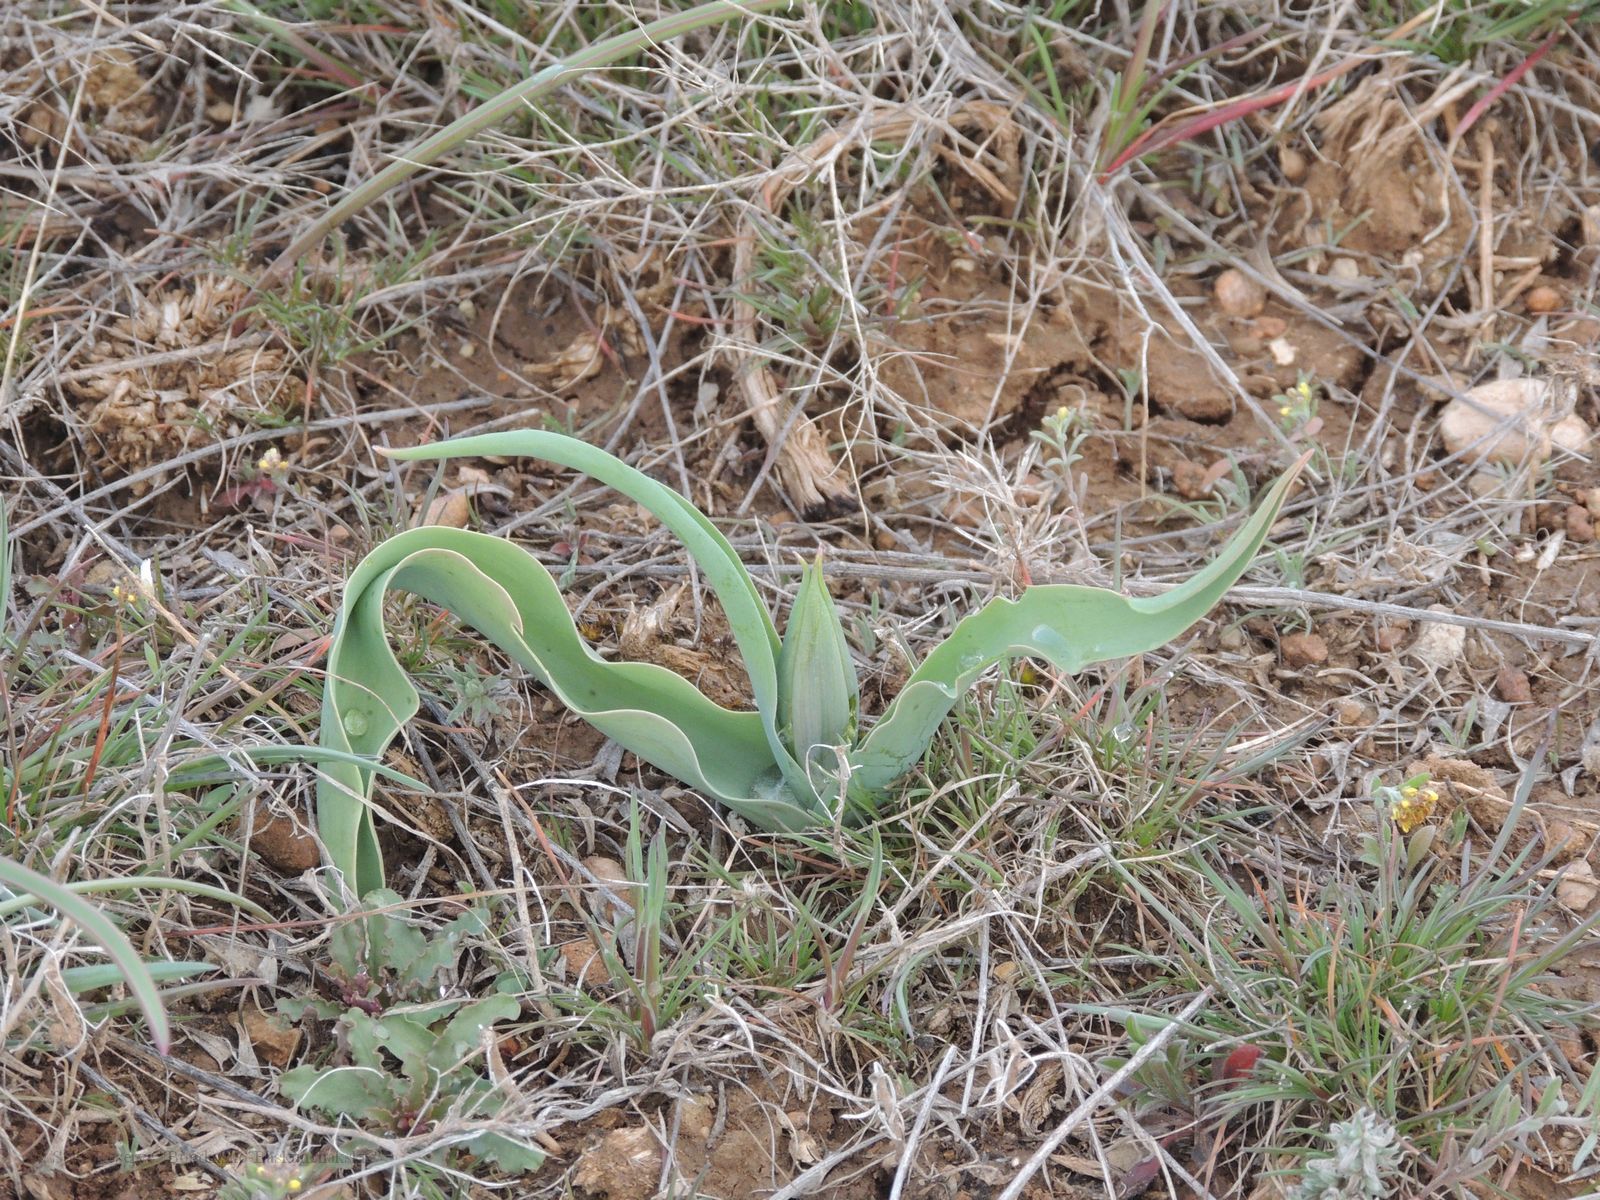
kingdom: Plantae
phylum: Tracheophyta
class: Liliopsida
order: Liliales
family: Liliaceae
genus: Tulipa
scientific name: Tulipa suaveolens
